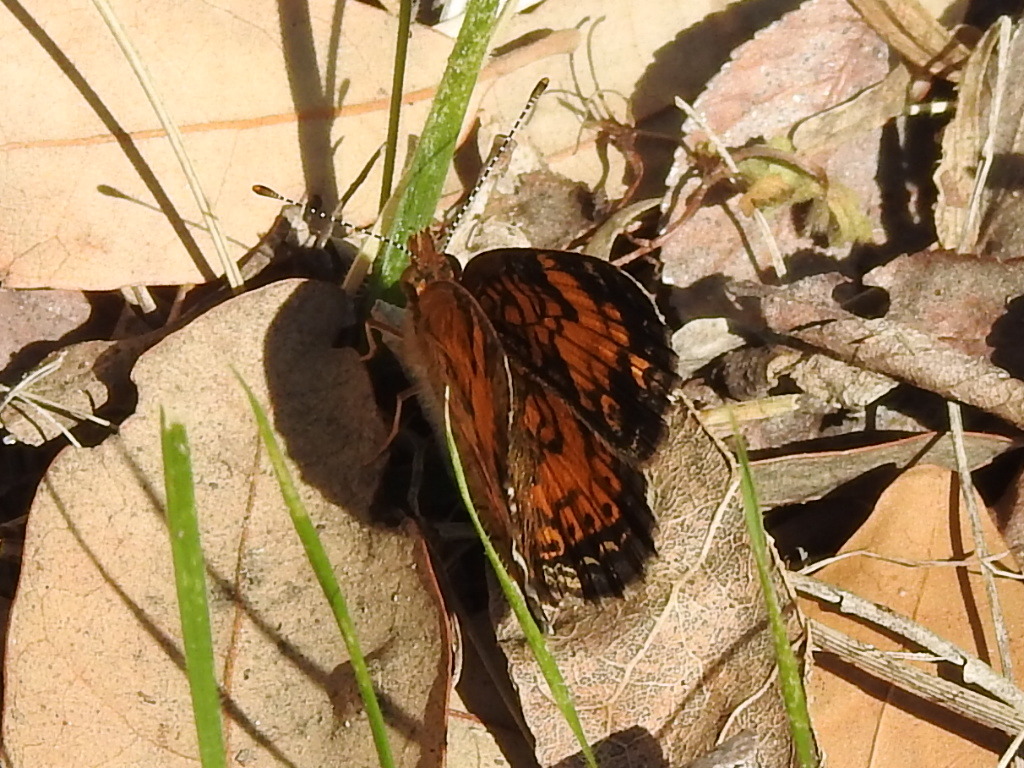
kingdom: Animalia
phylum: Arthropoda
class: Insecta
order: Lepidoptera
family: Nymphalidae
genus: Phyciodes
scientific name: Phyciodes tharos
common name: Pearl crescent
